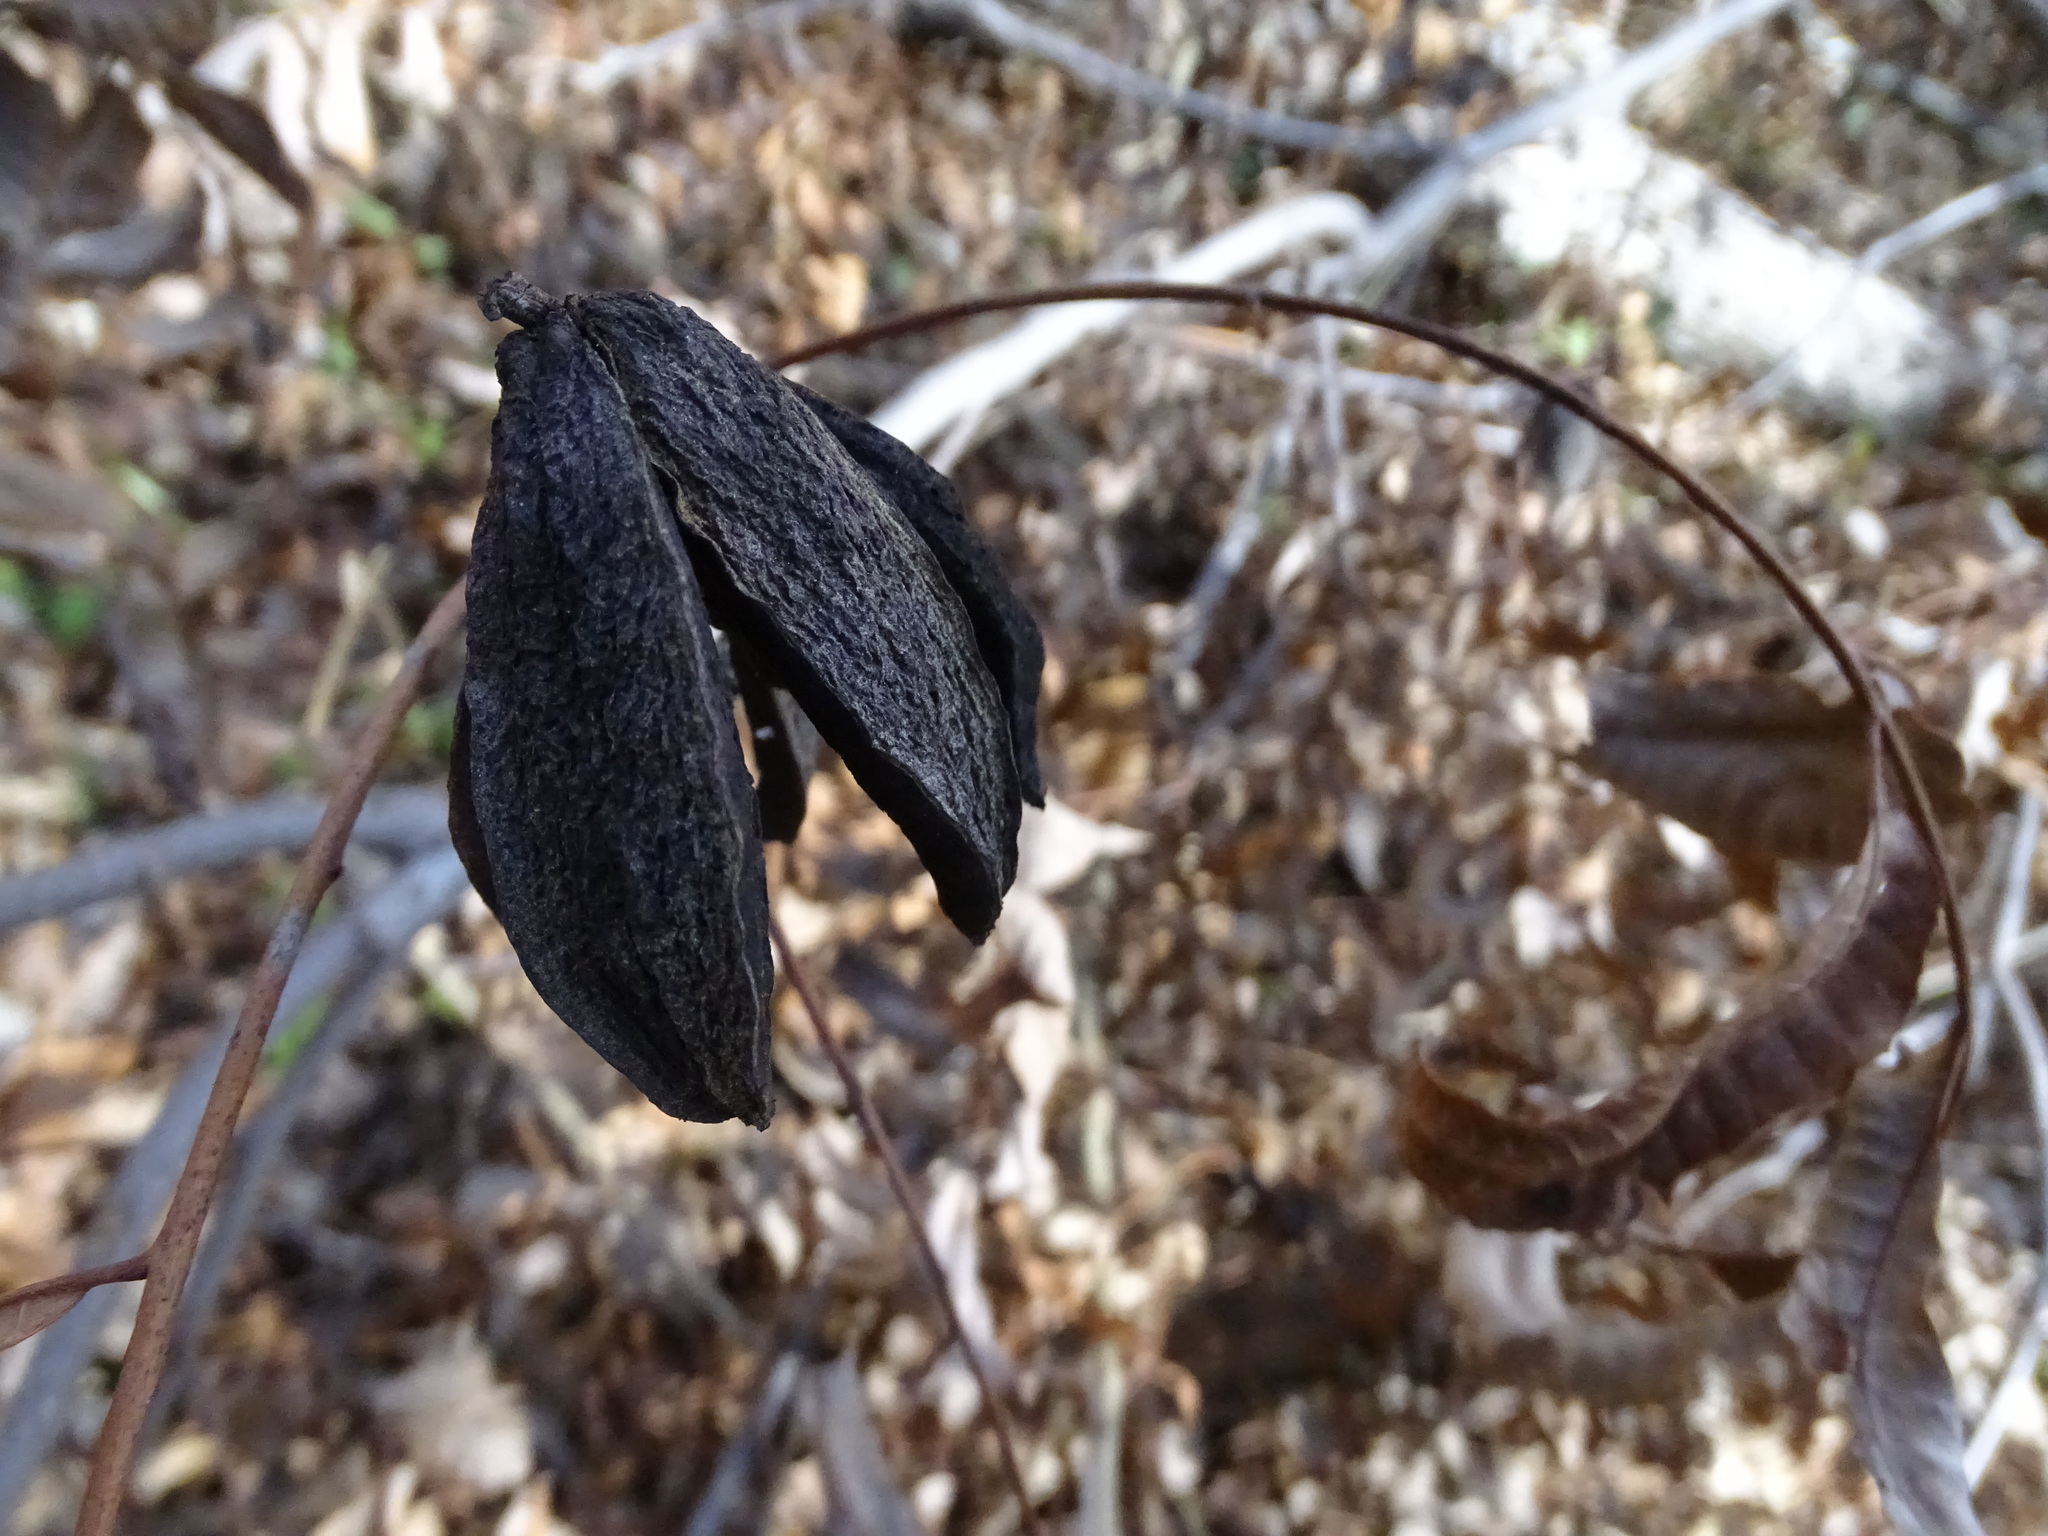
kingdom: Plantae
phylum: Tracheophyta
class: Magnoliopsida
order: Fagales
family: Juglandaceae
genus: Carya
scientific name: Carya illinoinensis
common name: Pecan
